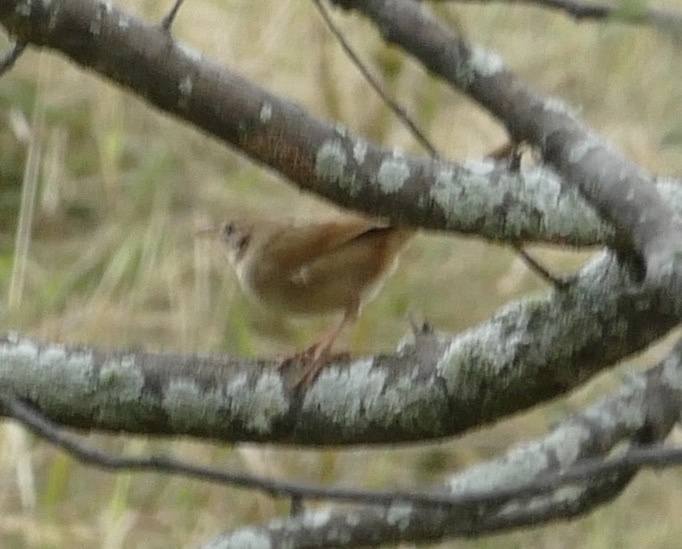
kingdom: Animalia
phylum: Chordata
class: Aves
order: Passeriformes
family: Locustellidae
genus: Megalurus
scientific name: Megalurus timoriensis
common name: Tawny grassbird
